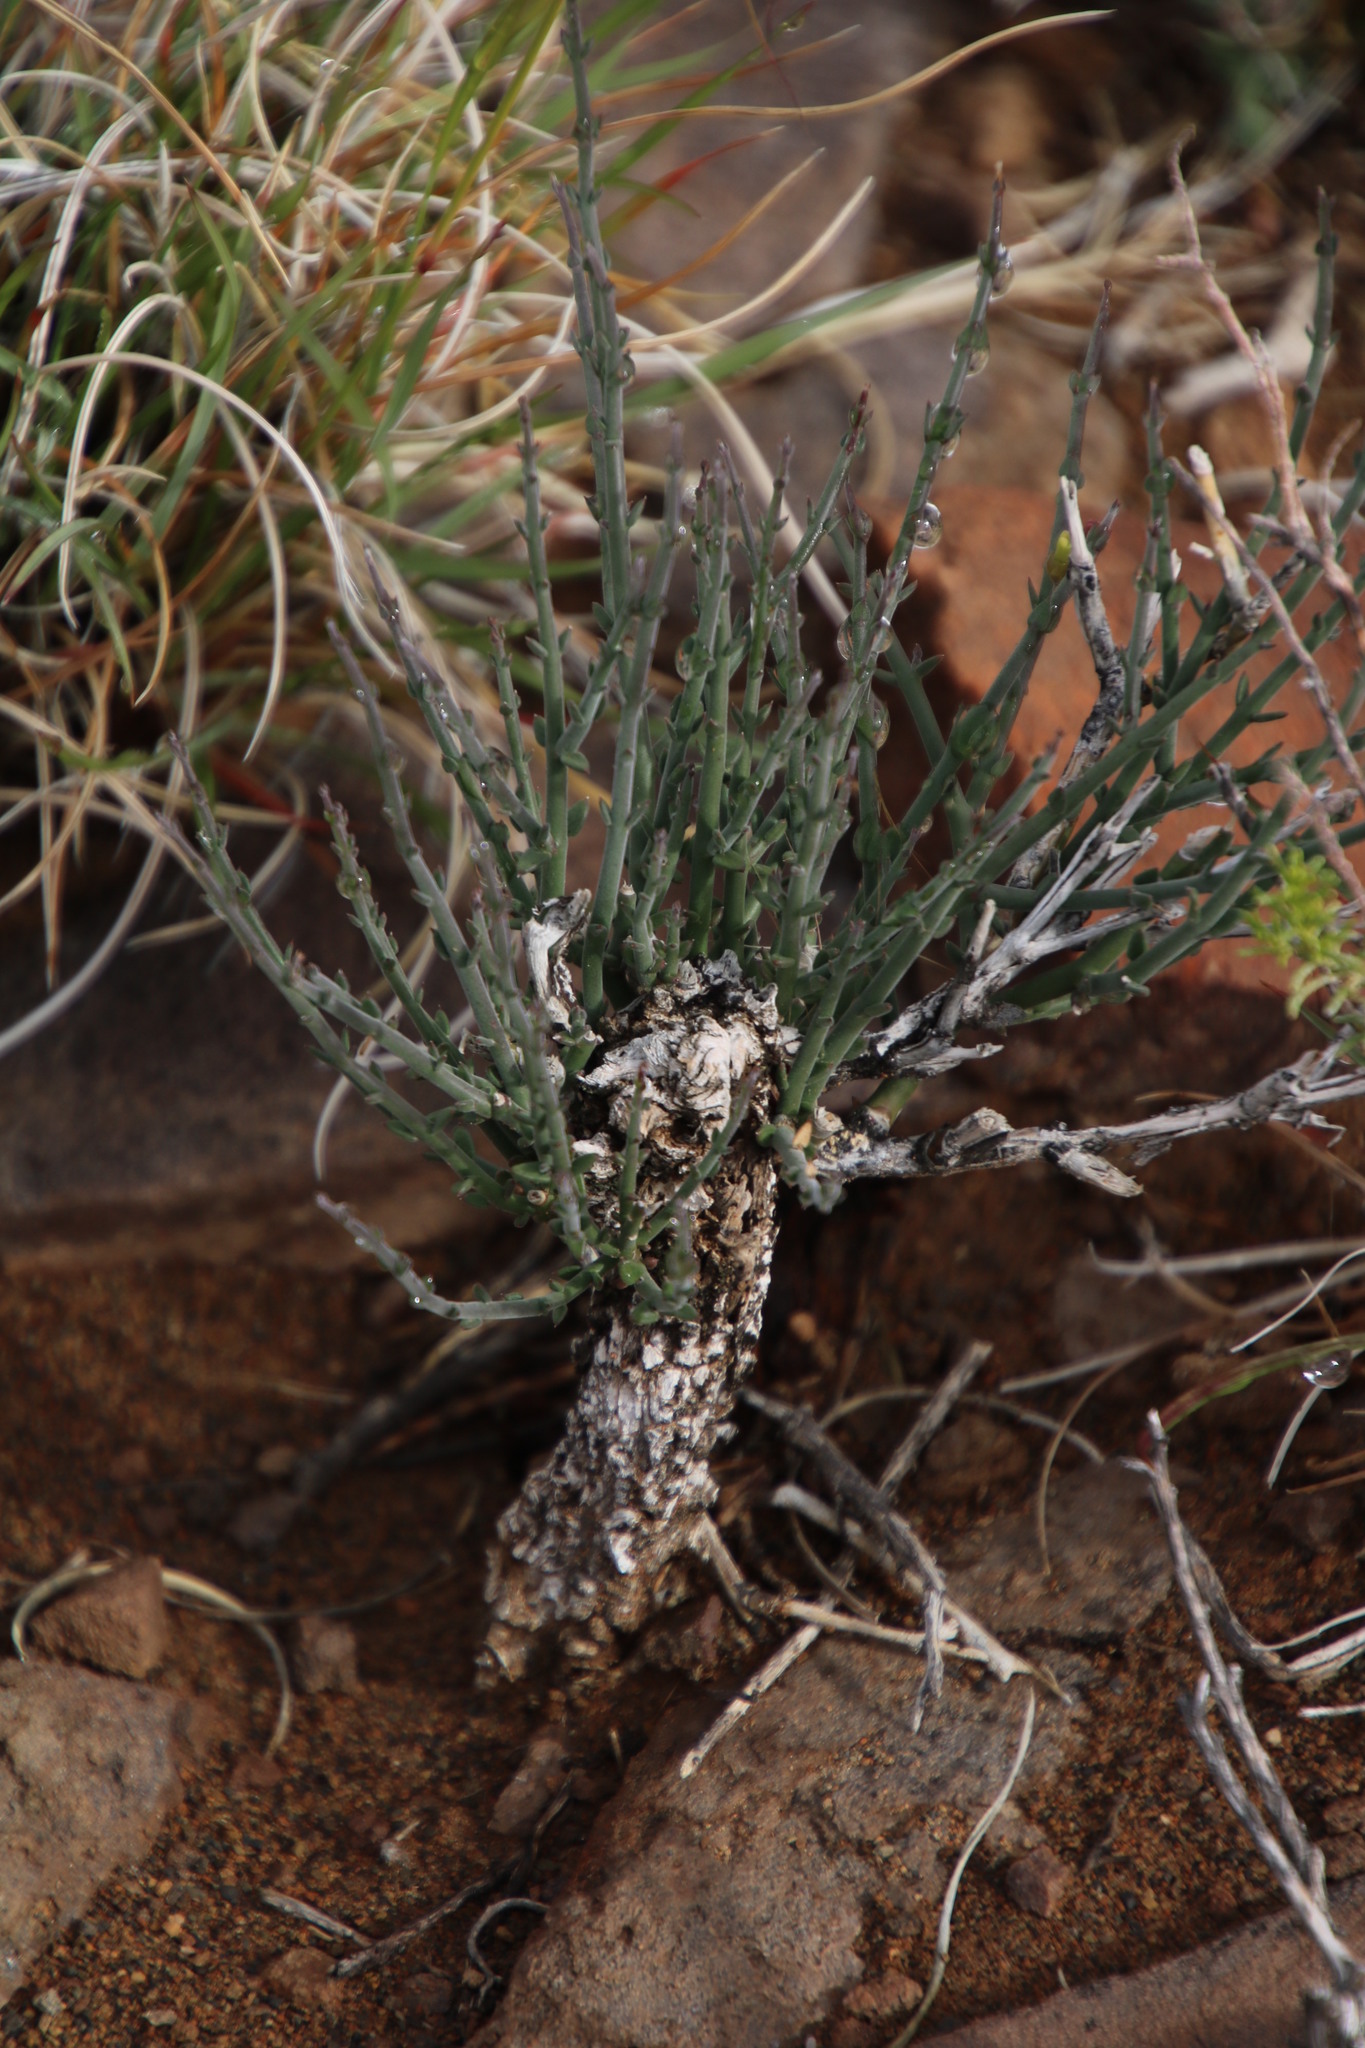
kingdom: Plantae
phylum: Tracheophyta
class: Magnoliopsida
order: Gentianales
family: Apocynaceae
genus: Microloma
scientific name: Microloma armatum
